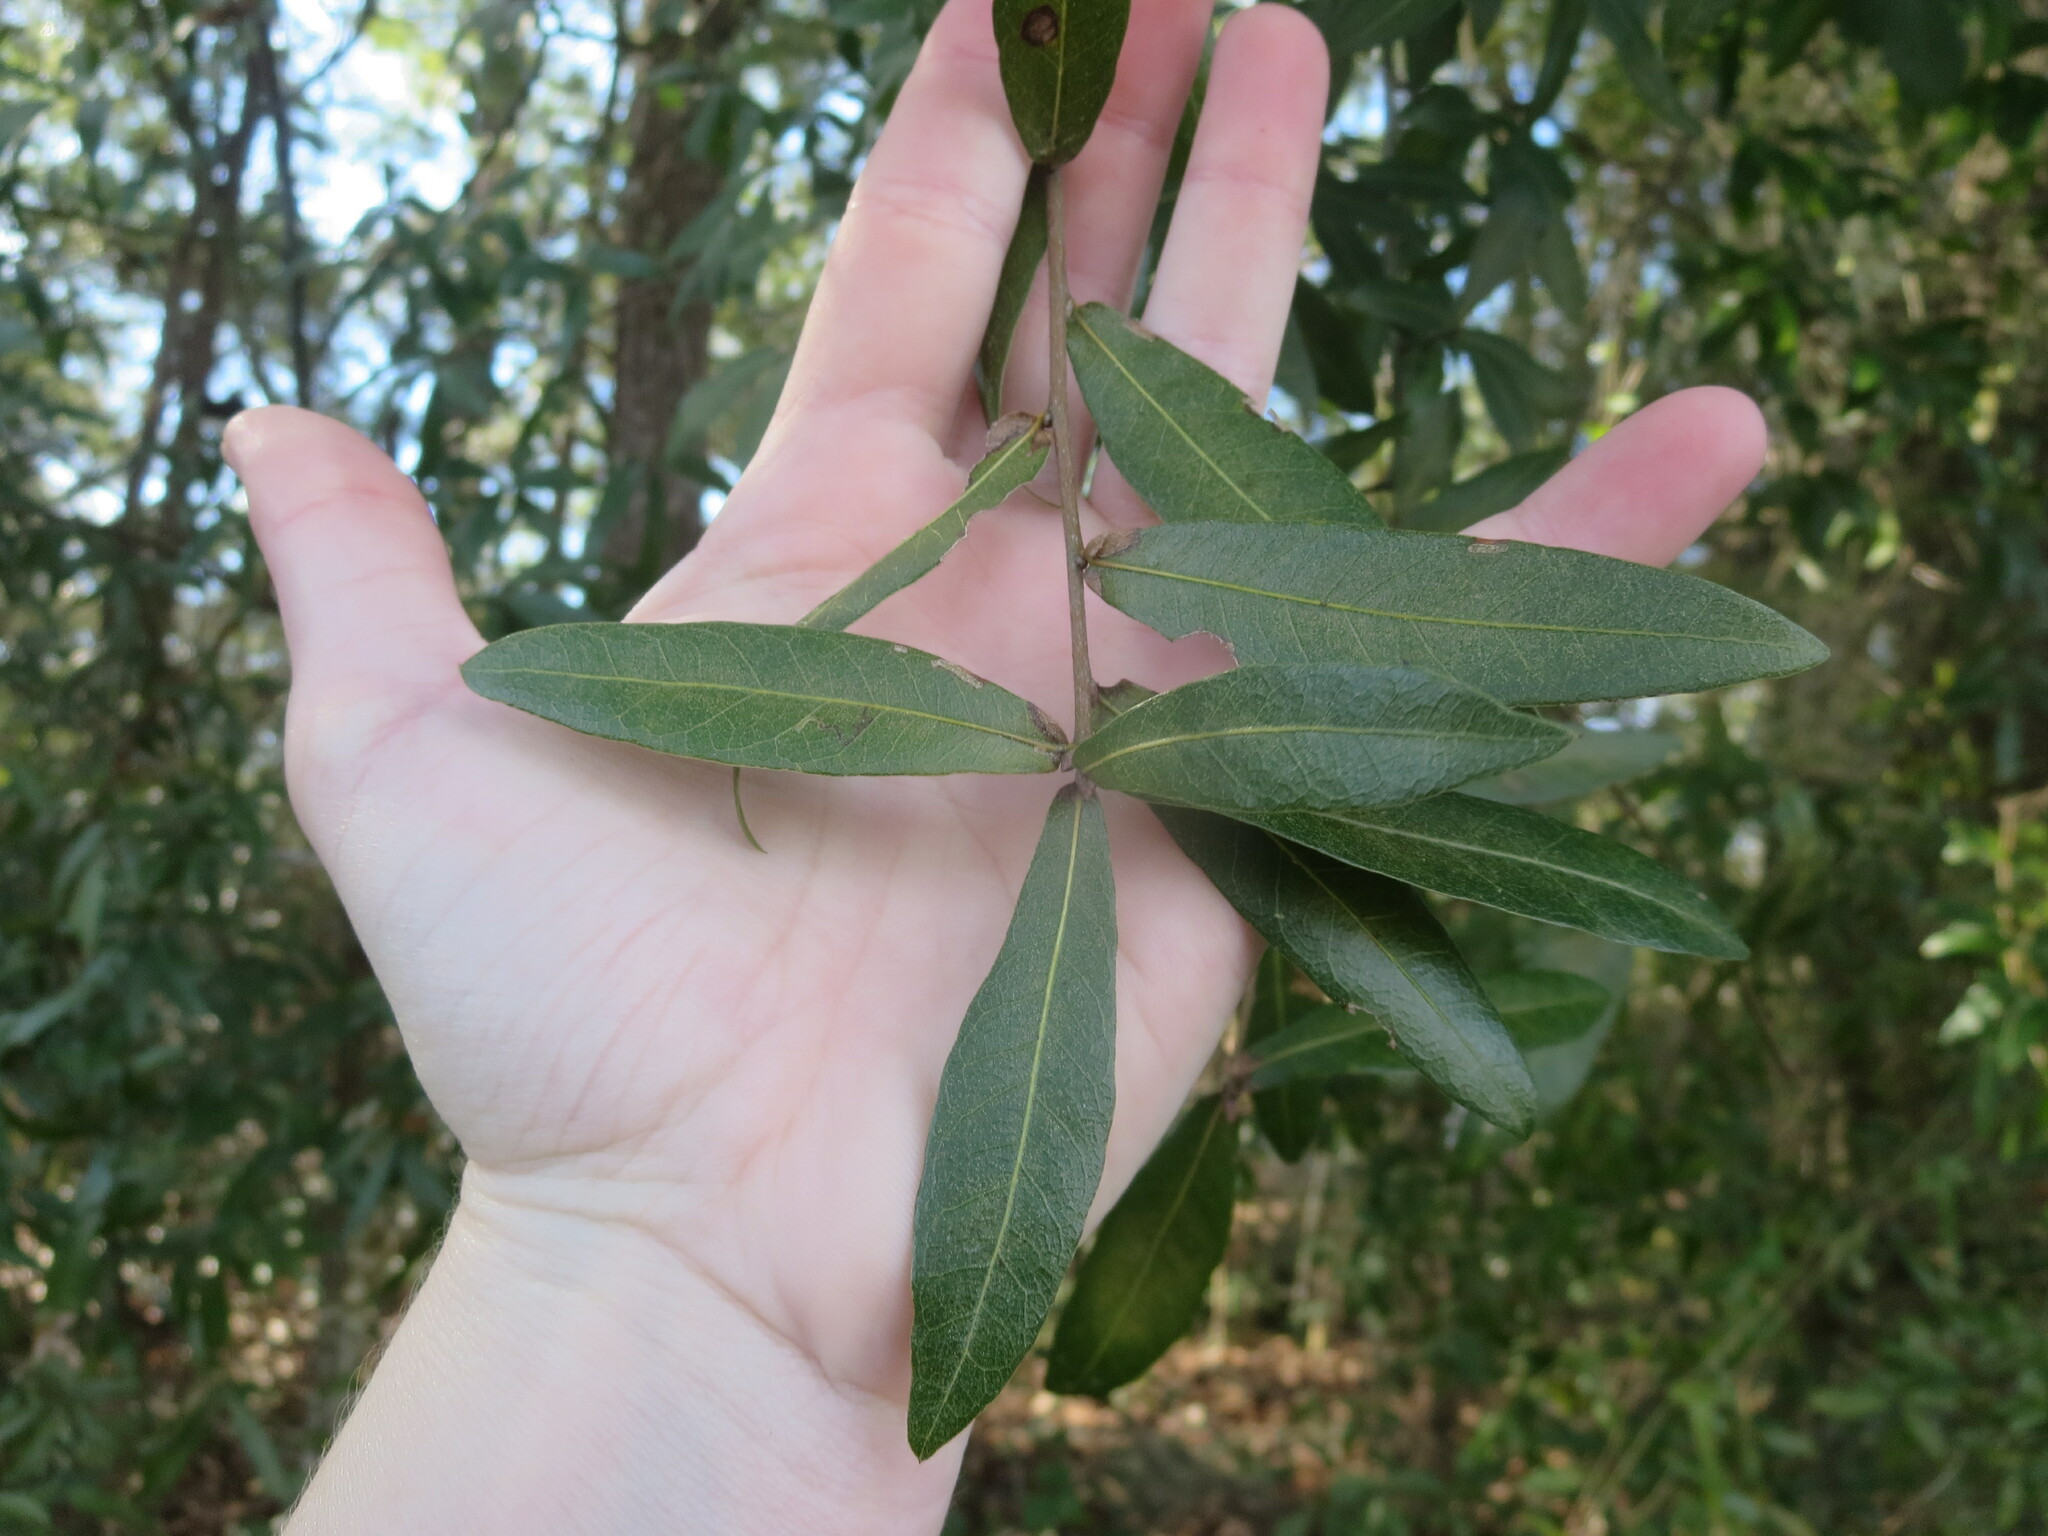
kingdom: Plantae
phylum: Tracheophyta
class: Magnoliopsida
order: Fagales
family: Fagaceae
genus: Quercus
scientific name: Quercus laurifolia
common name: Swamp laurel oak
